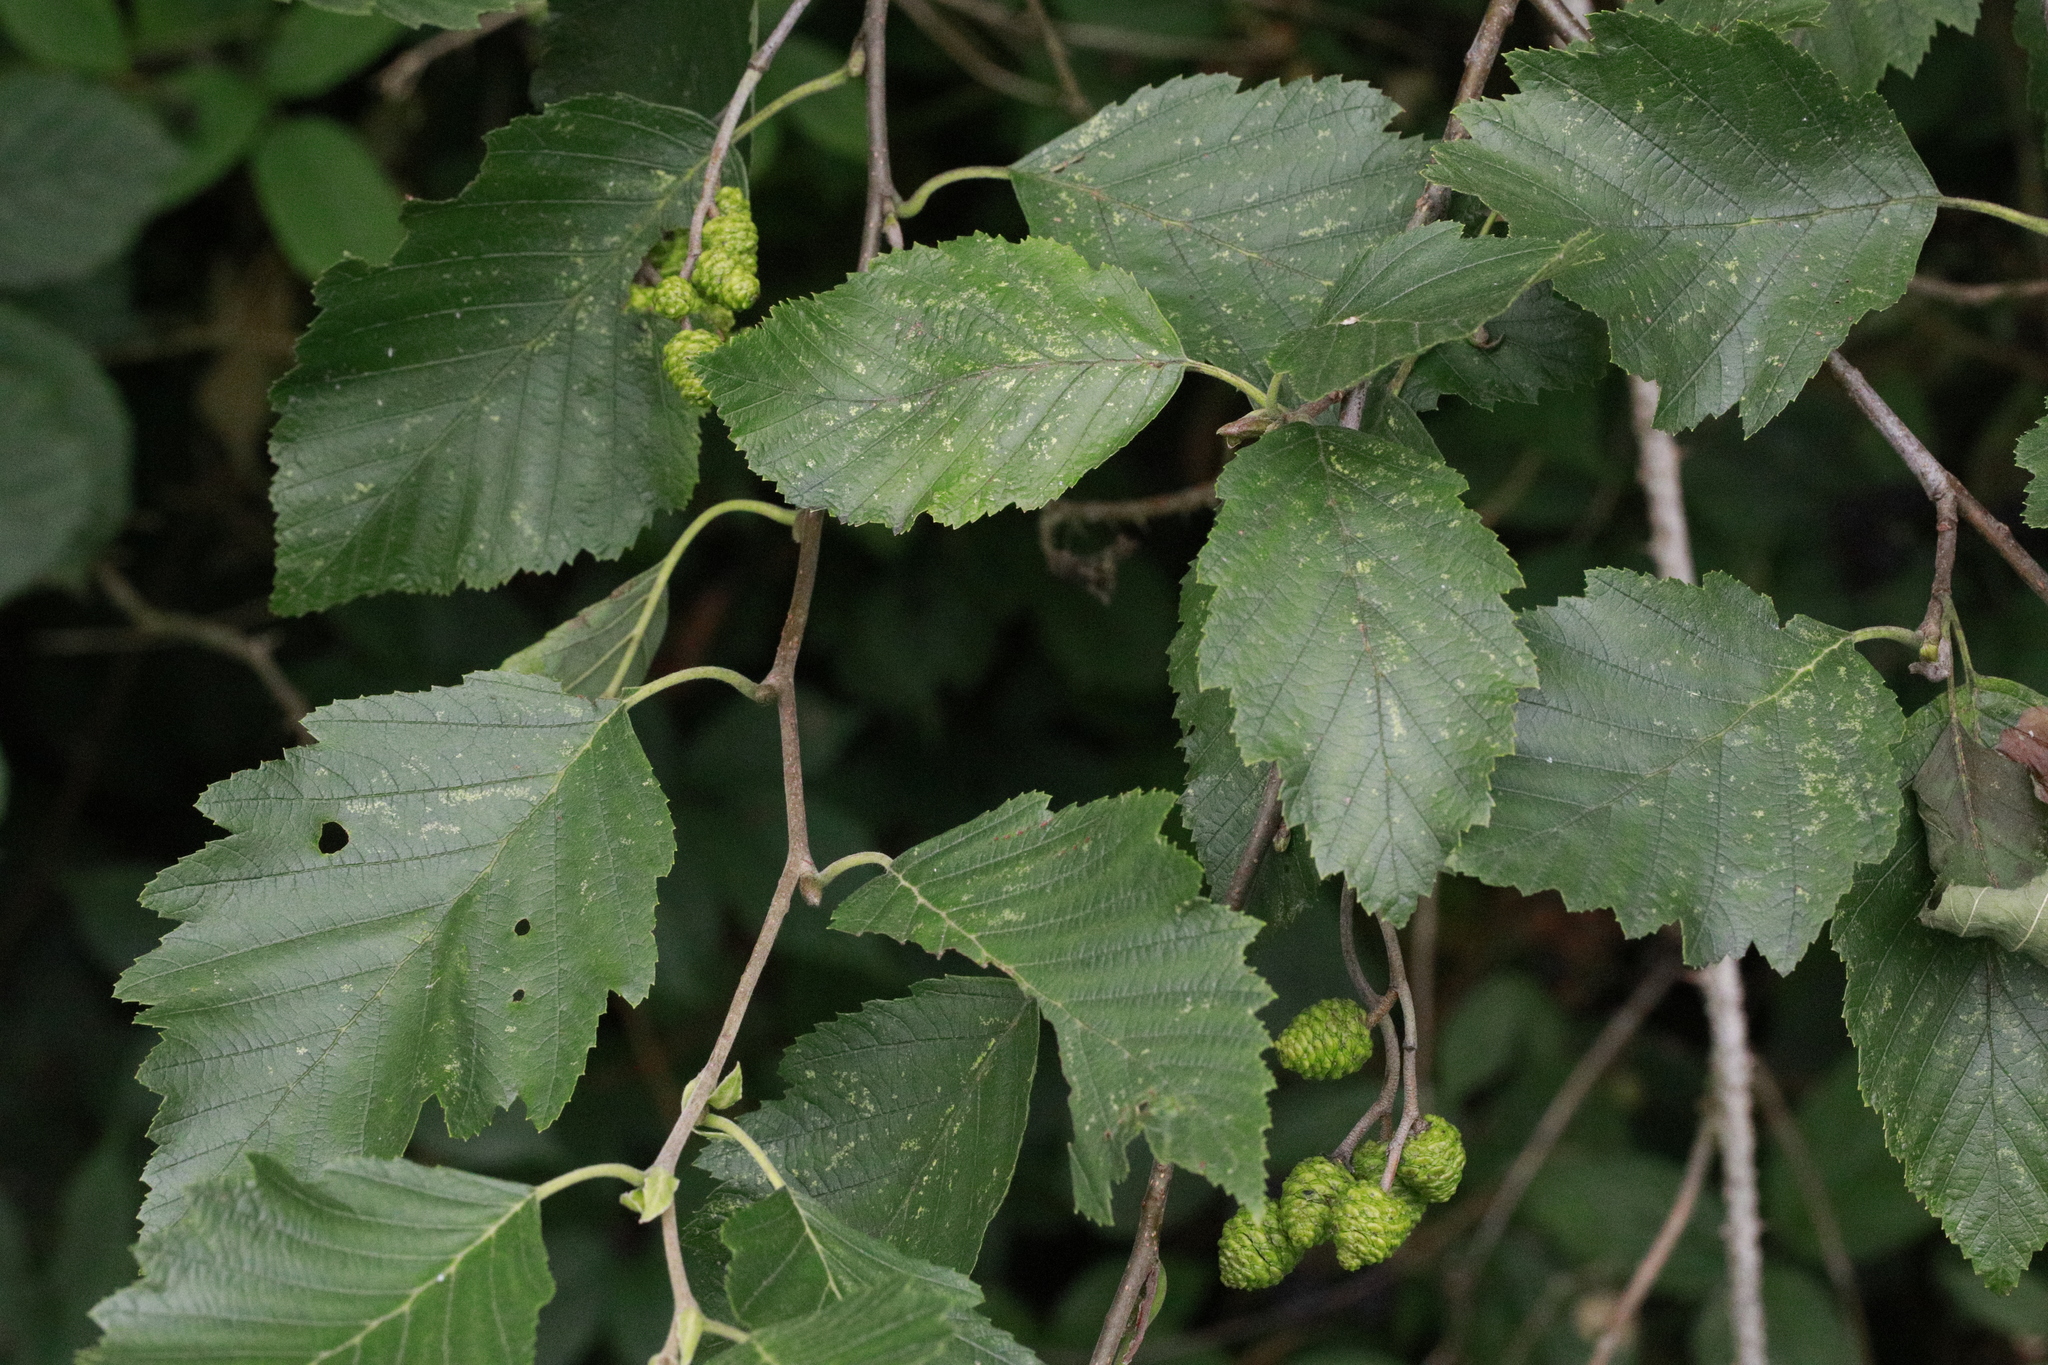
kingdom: Plantae
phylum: Tracheophyta
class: Magnoliopsida
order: Fagales
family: Betulaceae
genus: Alnus
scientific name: Alnus incana
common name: Grey alder
